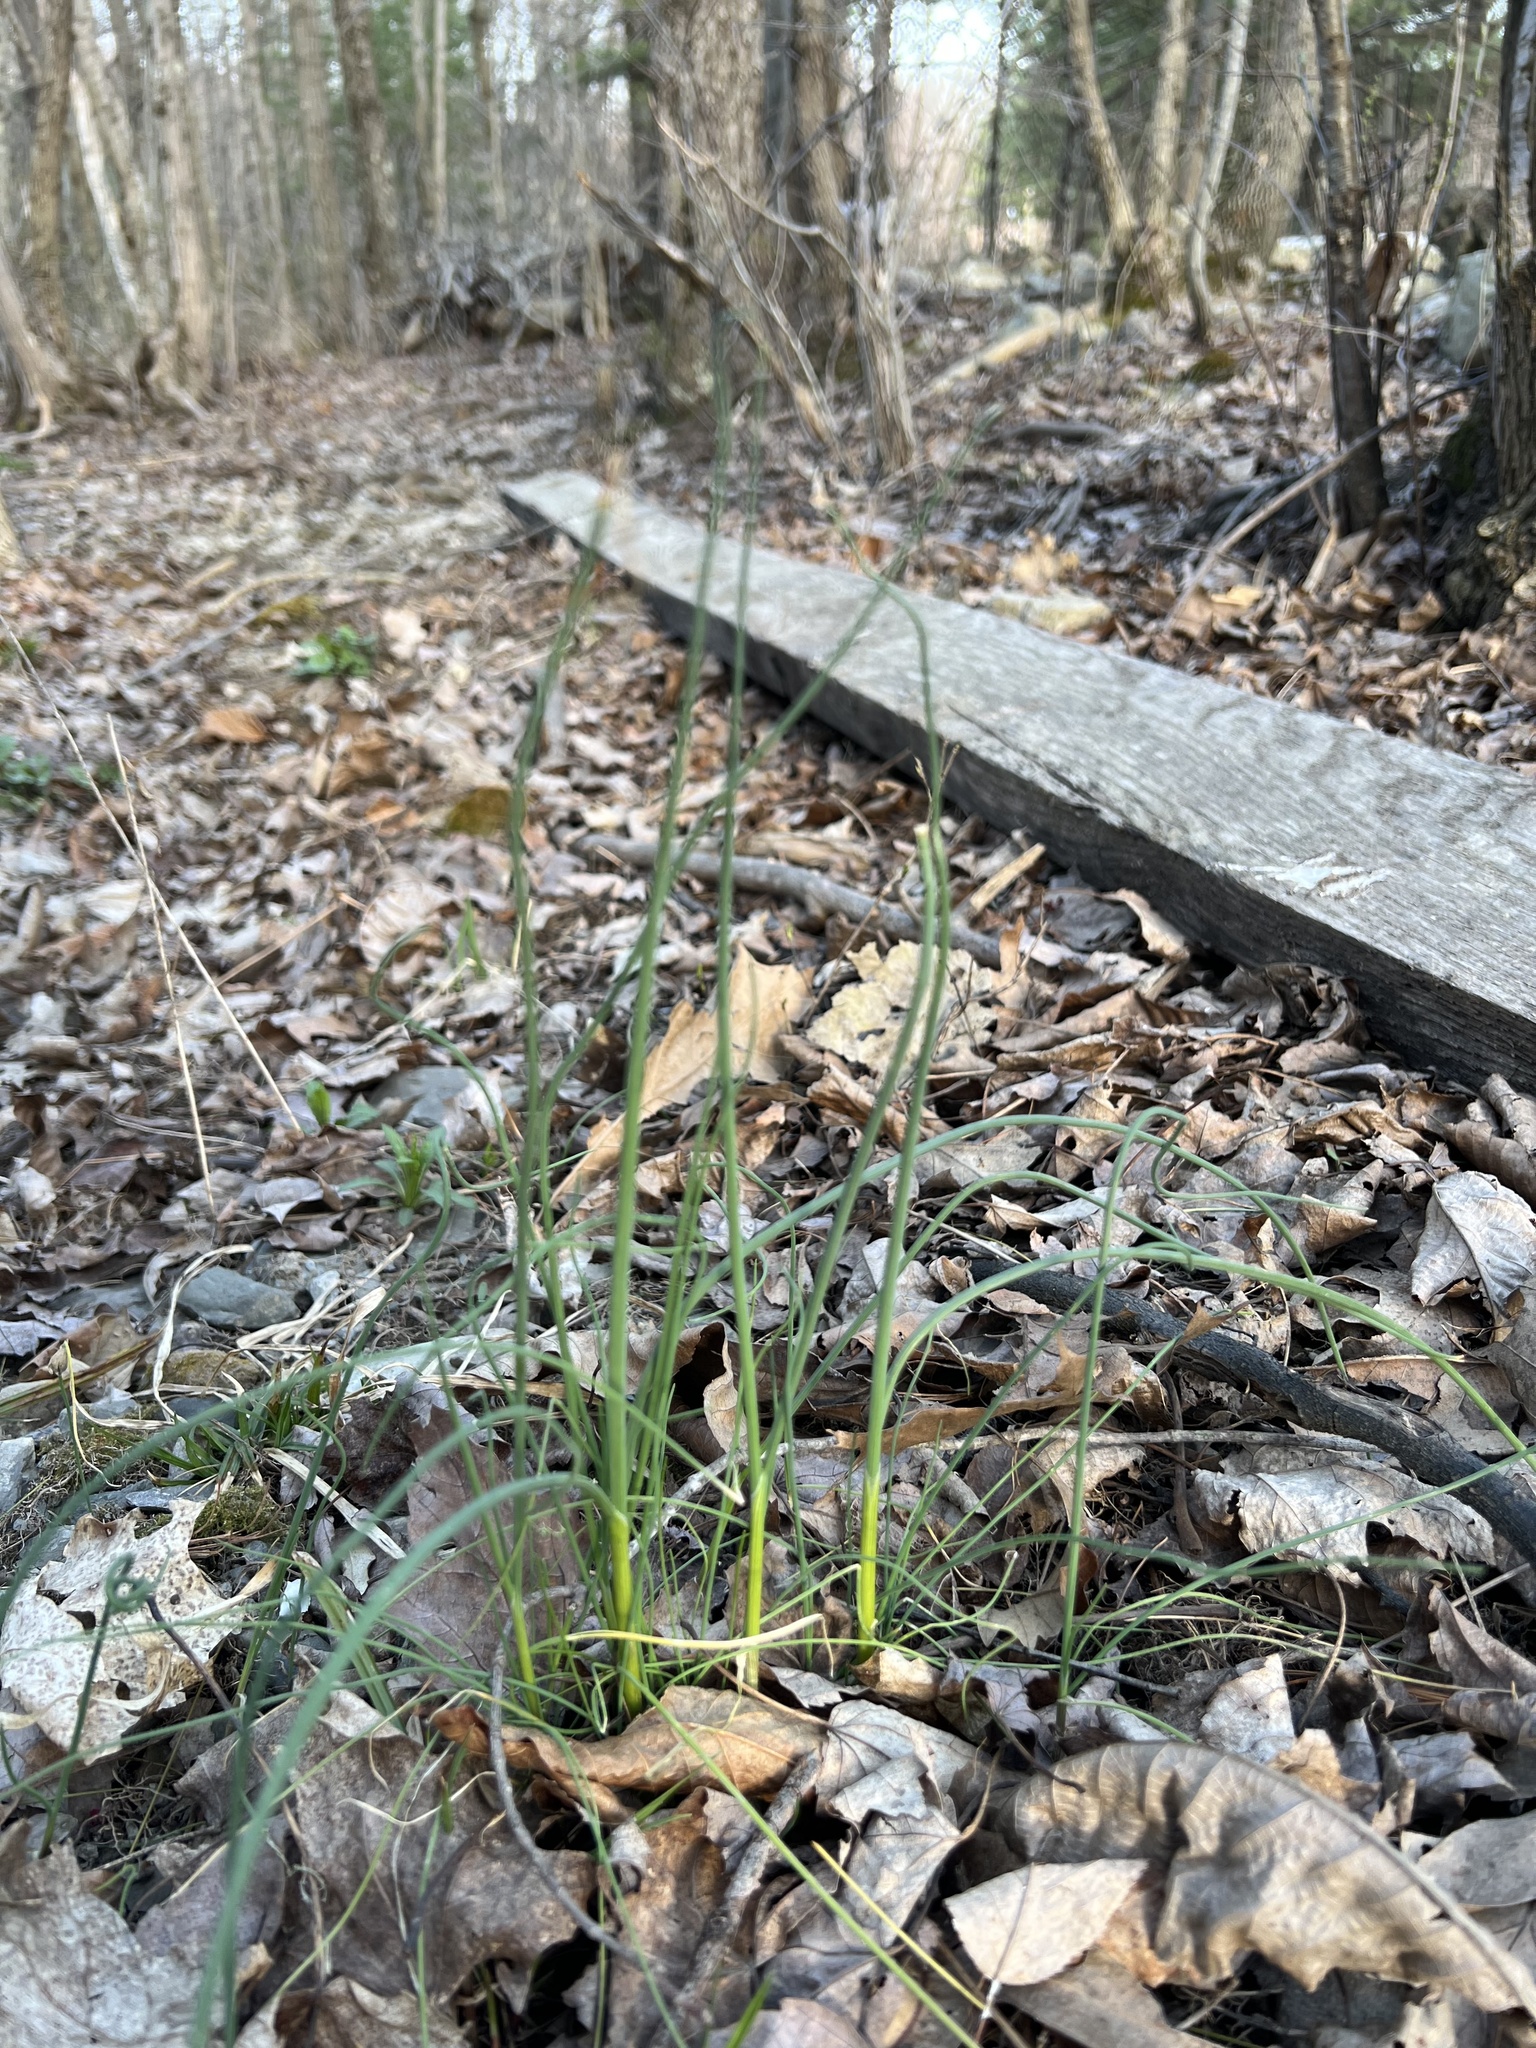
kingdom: Plantae
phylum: Tracheophyta
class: Liliopsida
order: Asparagales
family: Amaryllidaceae
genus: Allium
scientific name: Allium vineale
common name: Crow garlic
